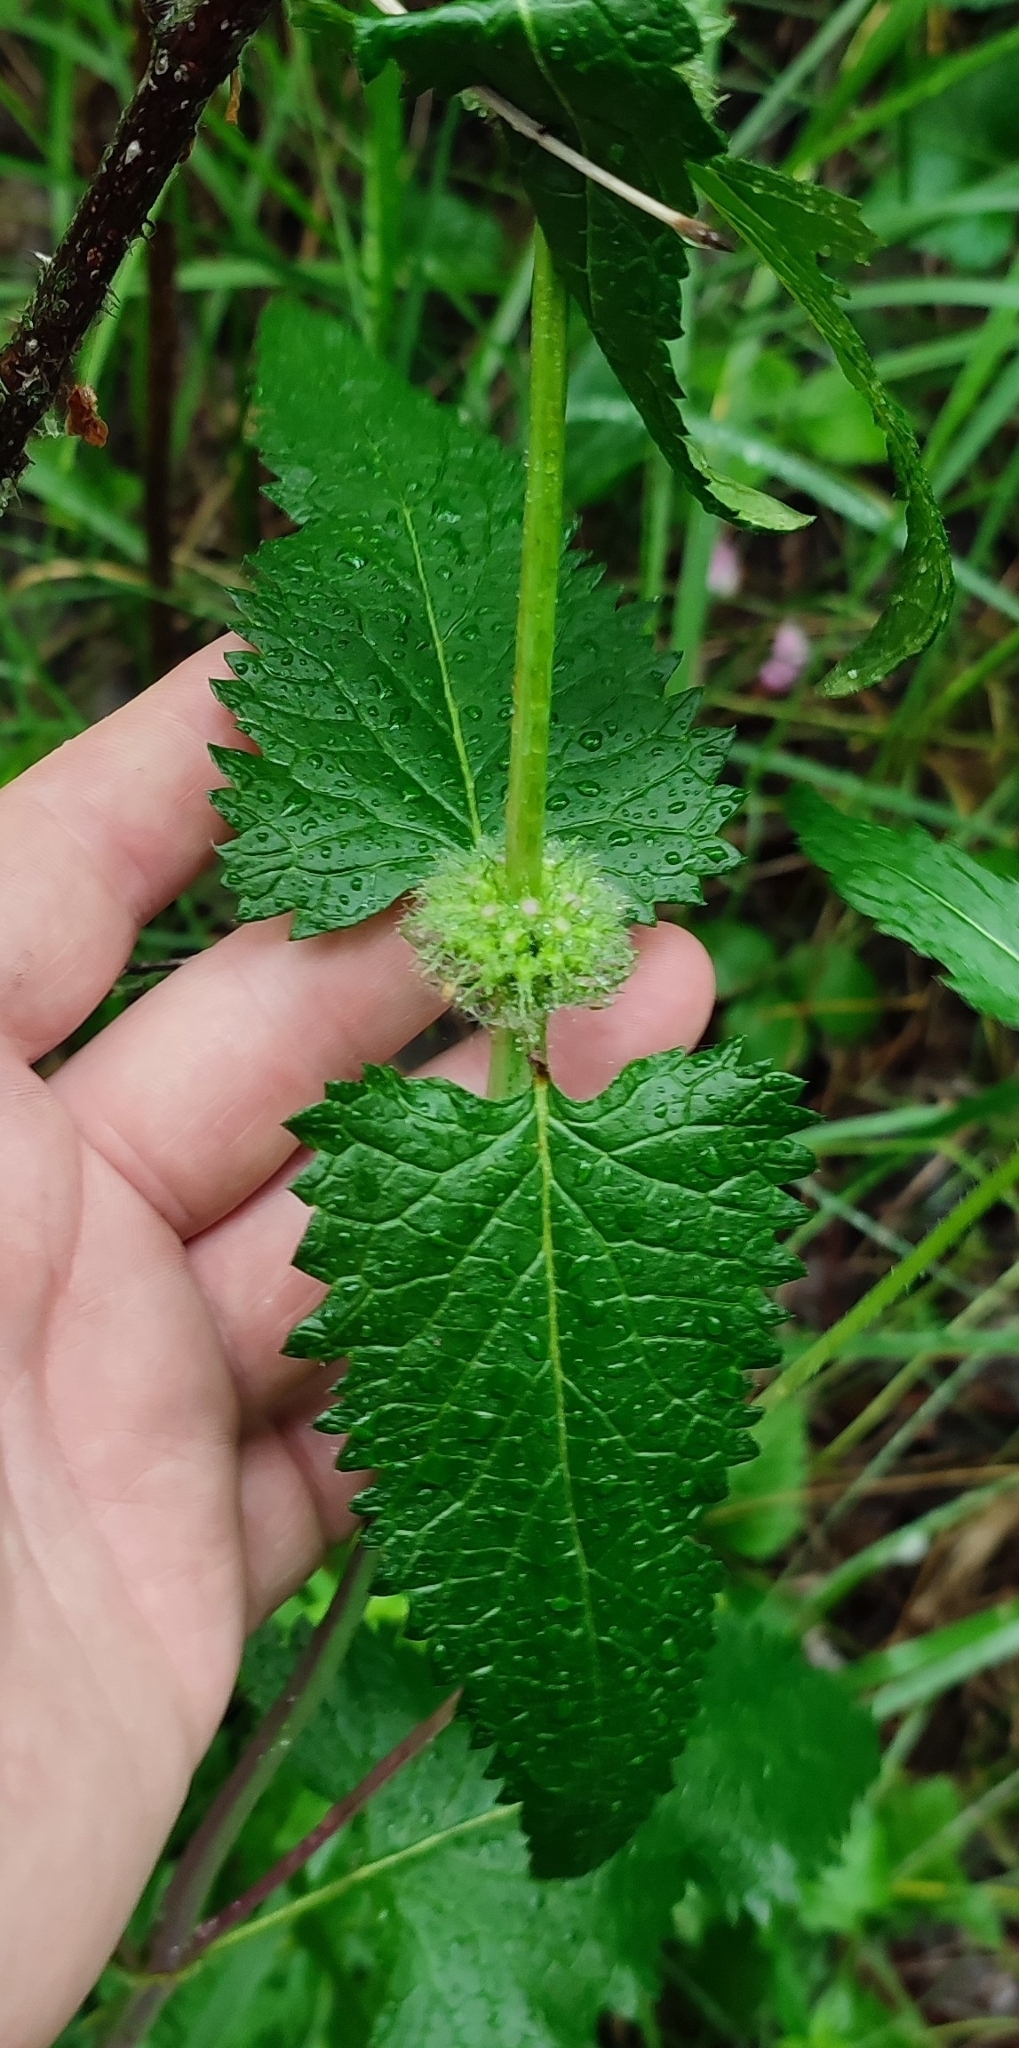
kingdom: Plantae
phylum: Tracheophyta
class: Magnoliopsida
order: Lamiales
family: Lamiaceae
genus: Phlomoides
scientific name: Phlomoides tuberosa
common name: Tuberous jerusalem sage
